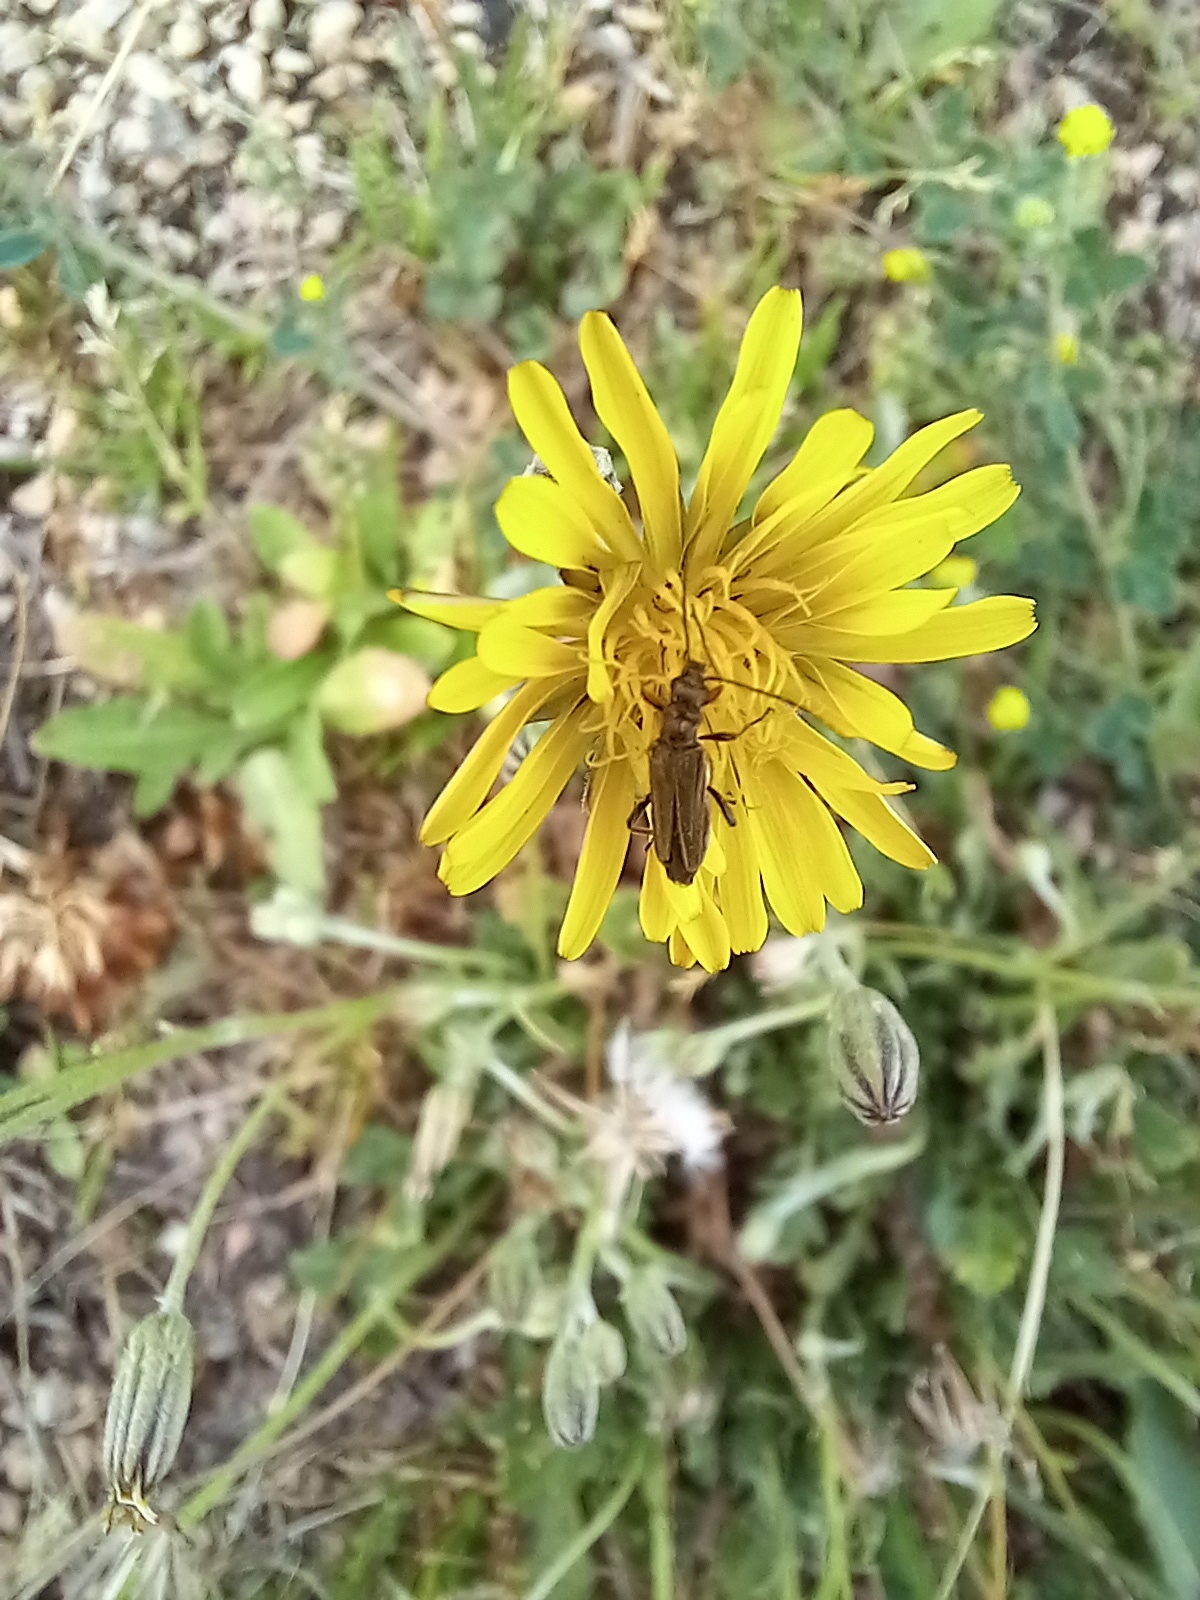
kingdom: Animalia
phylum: Arthropoda
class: Insecta
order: Coleoptera
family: Oedemeridae
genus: Oedemera
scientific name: Oedemera flavipes
